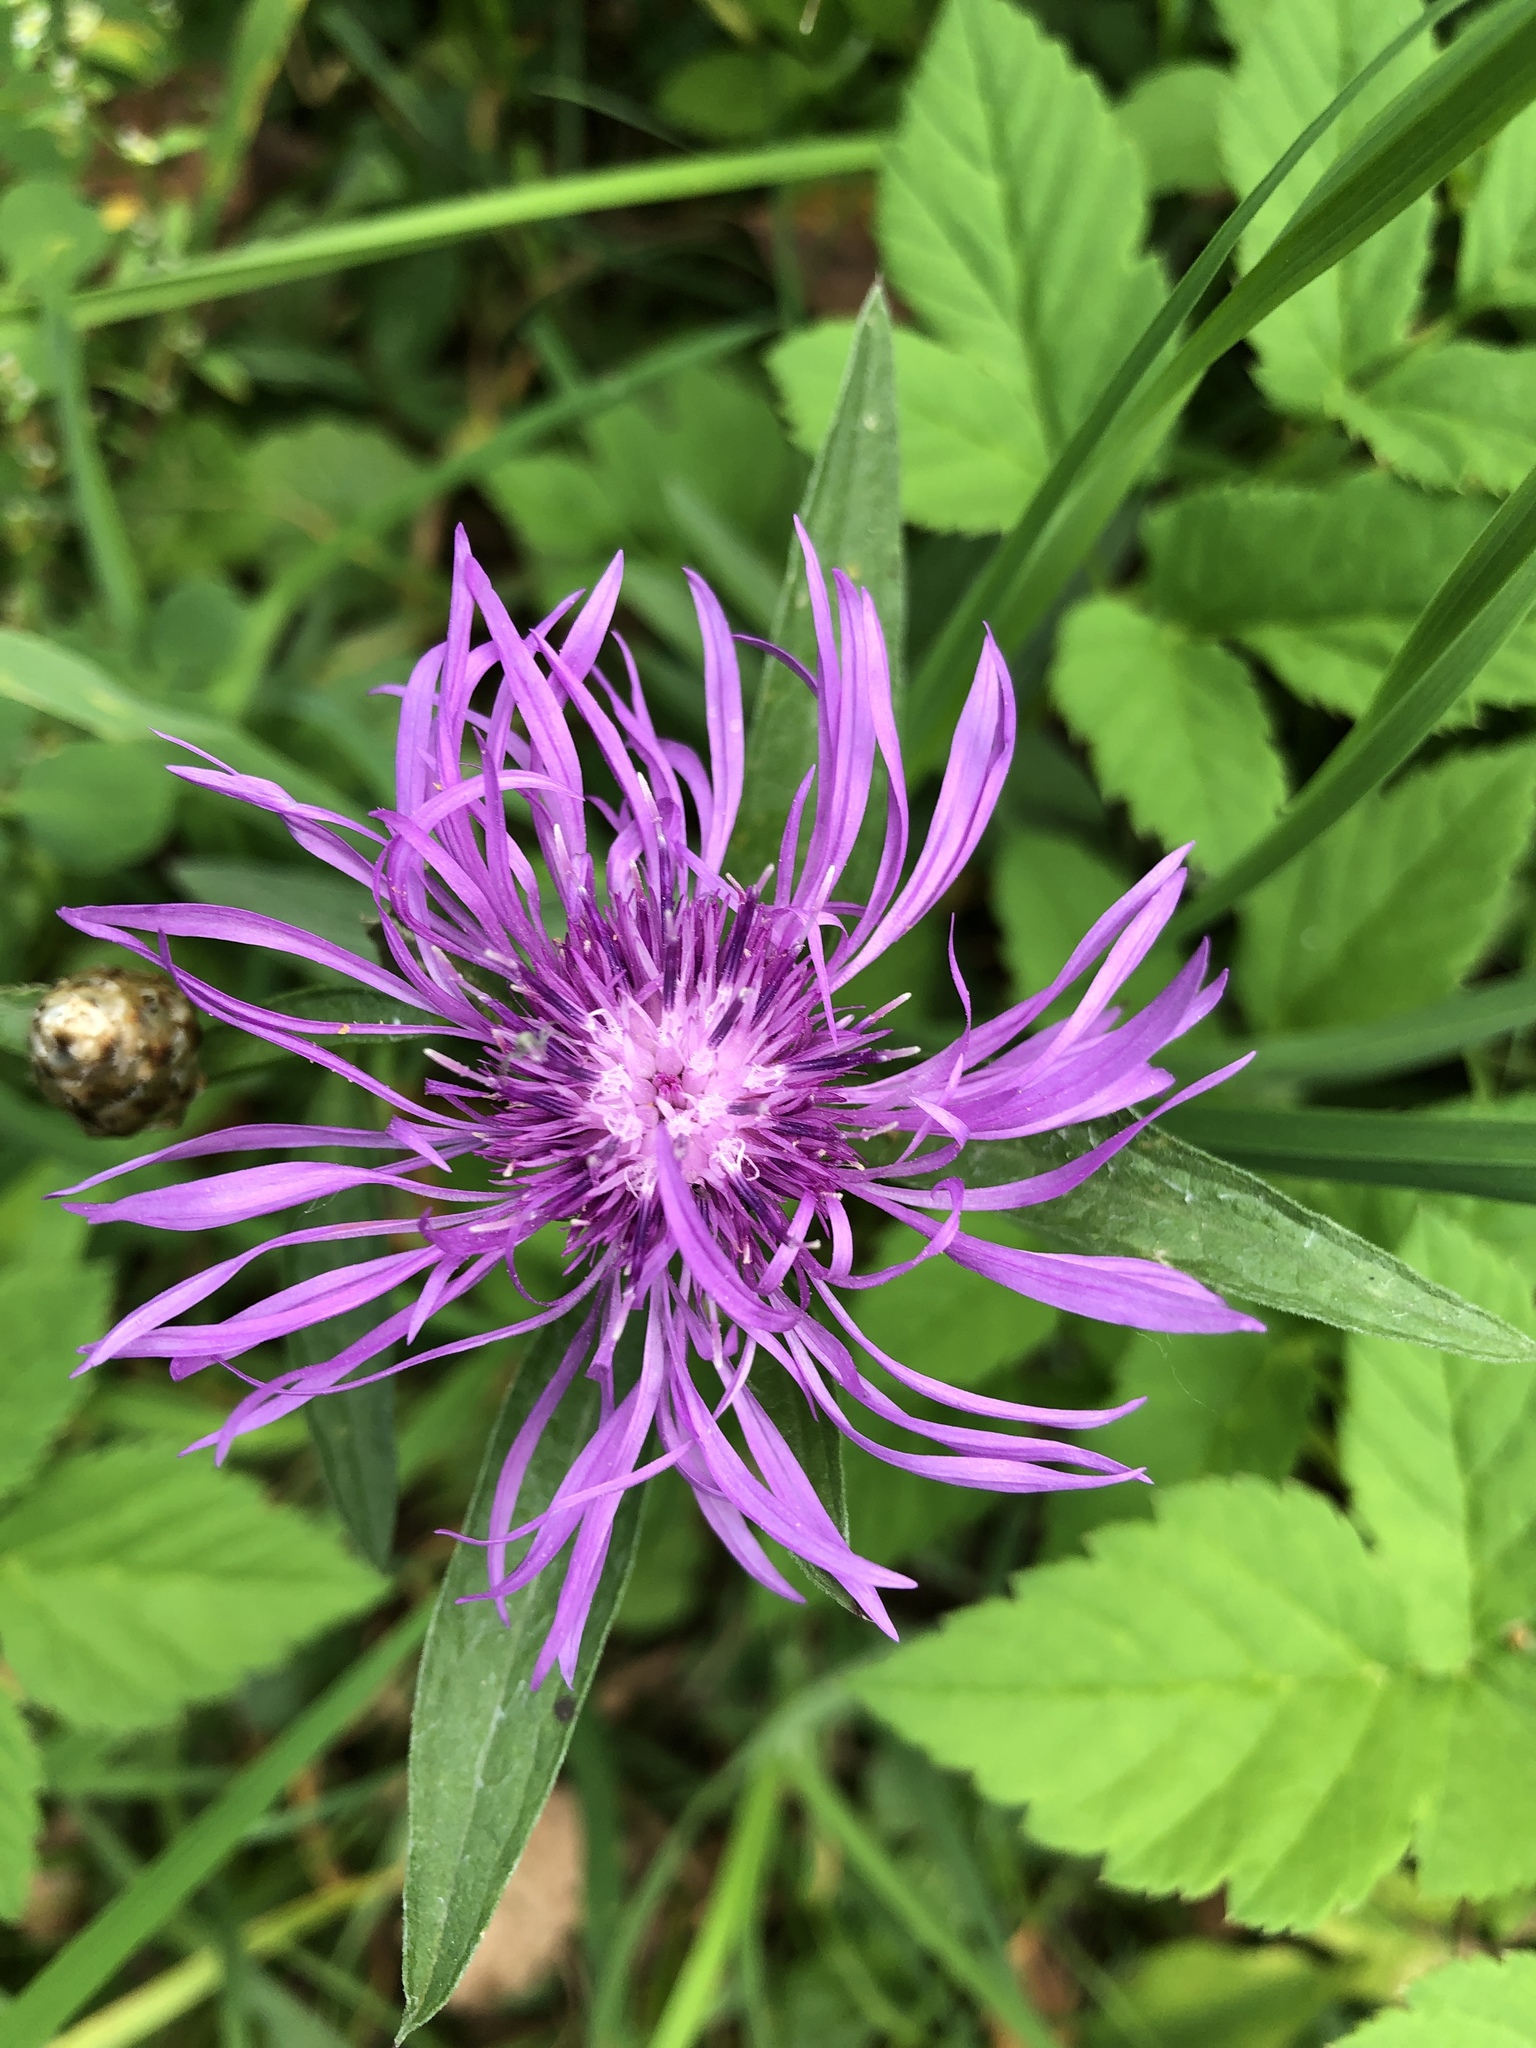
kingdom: Plantae
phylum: Tracheophyta
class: Magnoliopsida
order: Asterales
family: Asteraceae
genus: Centaurea
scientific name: Centaurea jacea
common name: Brown knapweed
